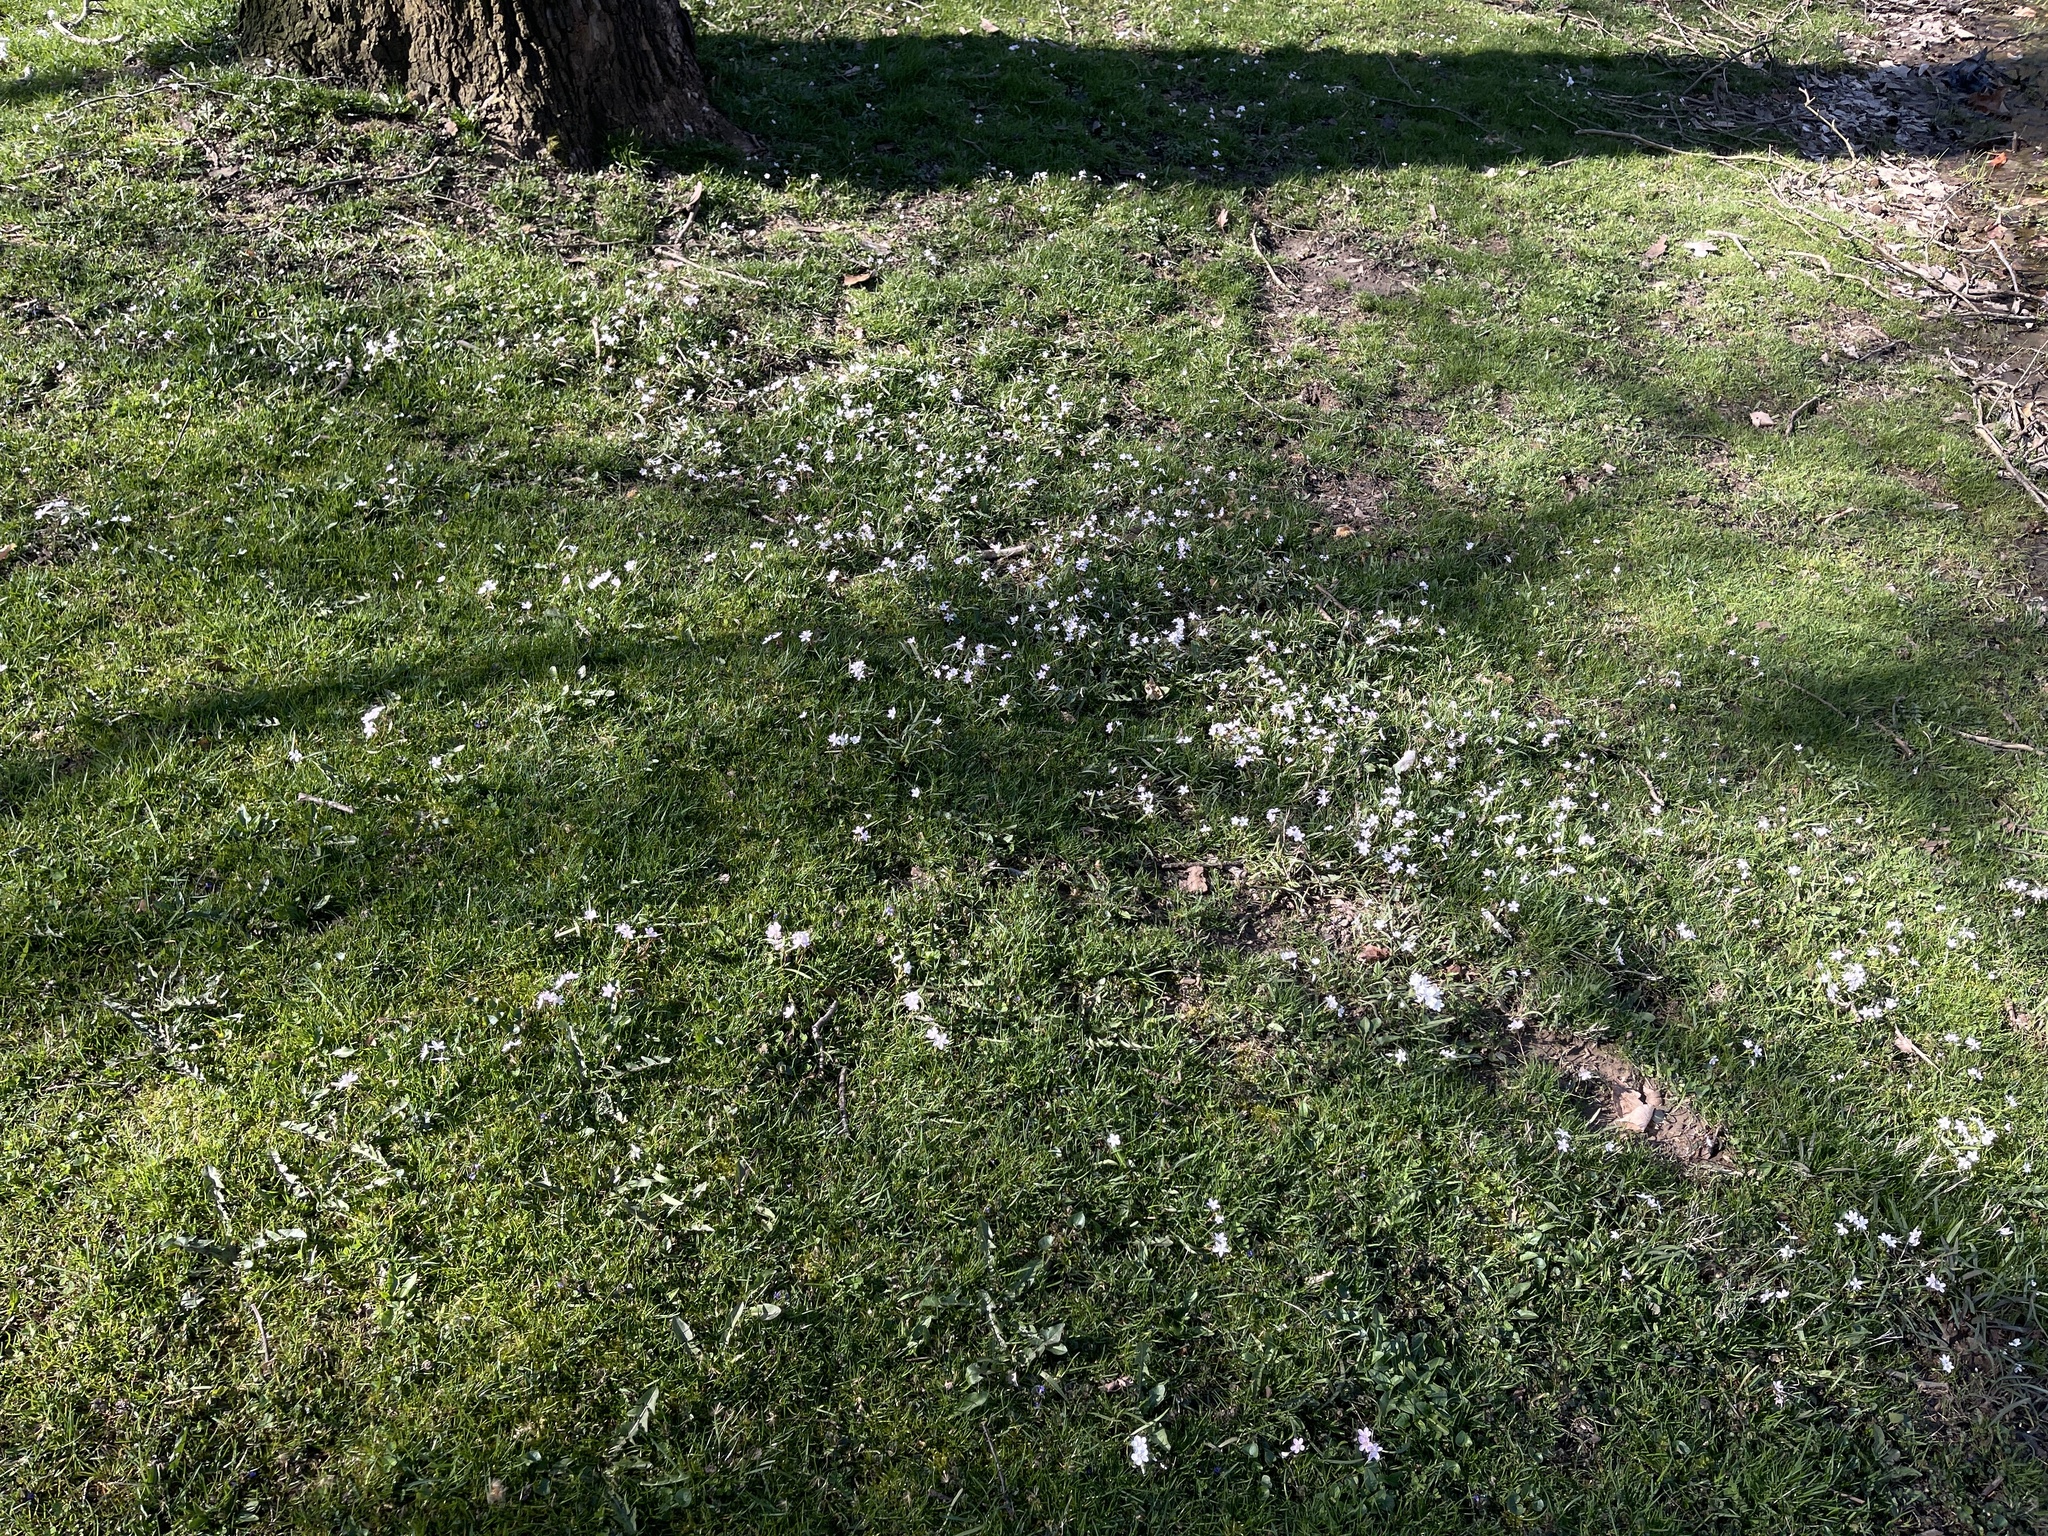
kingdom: Plantae
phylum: Tracheophyta
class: Magnoliopsida
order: Caryophyllales
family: Montiaceae
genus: Claytonia
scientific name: Claytonia virginica
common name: Virginia springbeauty
